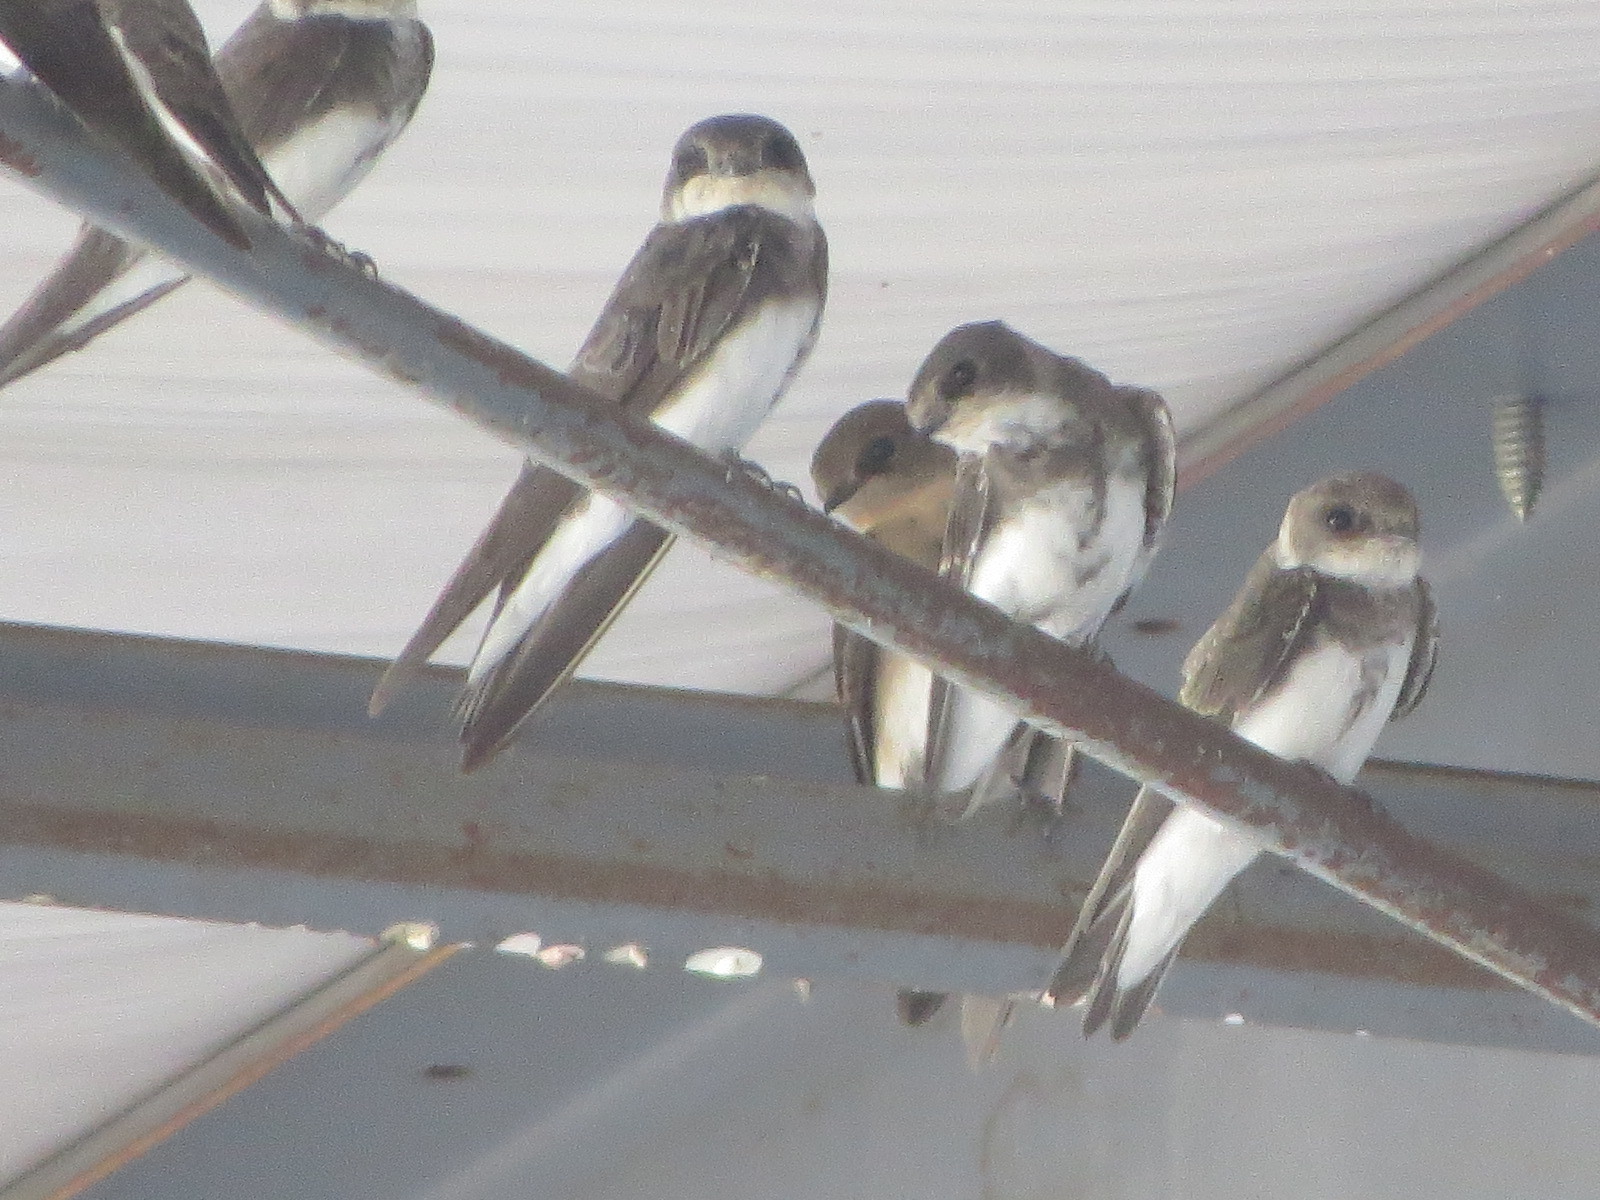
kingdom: Animalia
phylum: Chordata
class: Aves
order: Passeriformes
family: Hirundinidae
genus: Riparia
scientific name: Riparia riparia
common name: Sand martin
